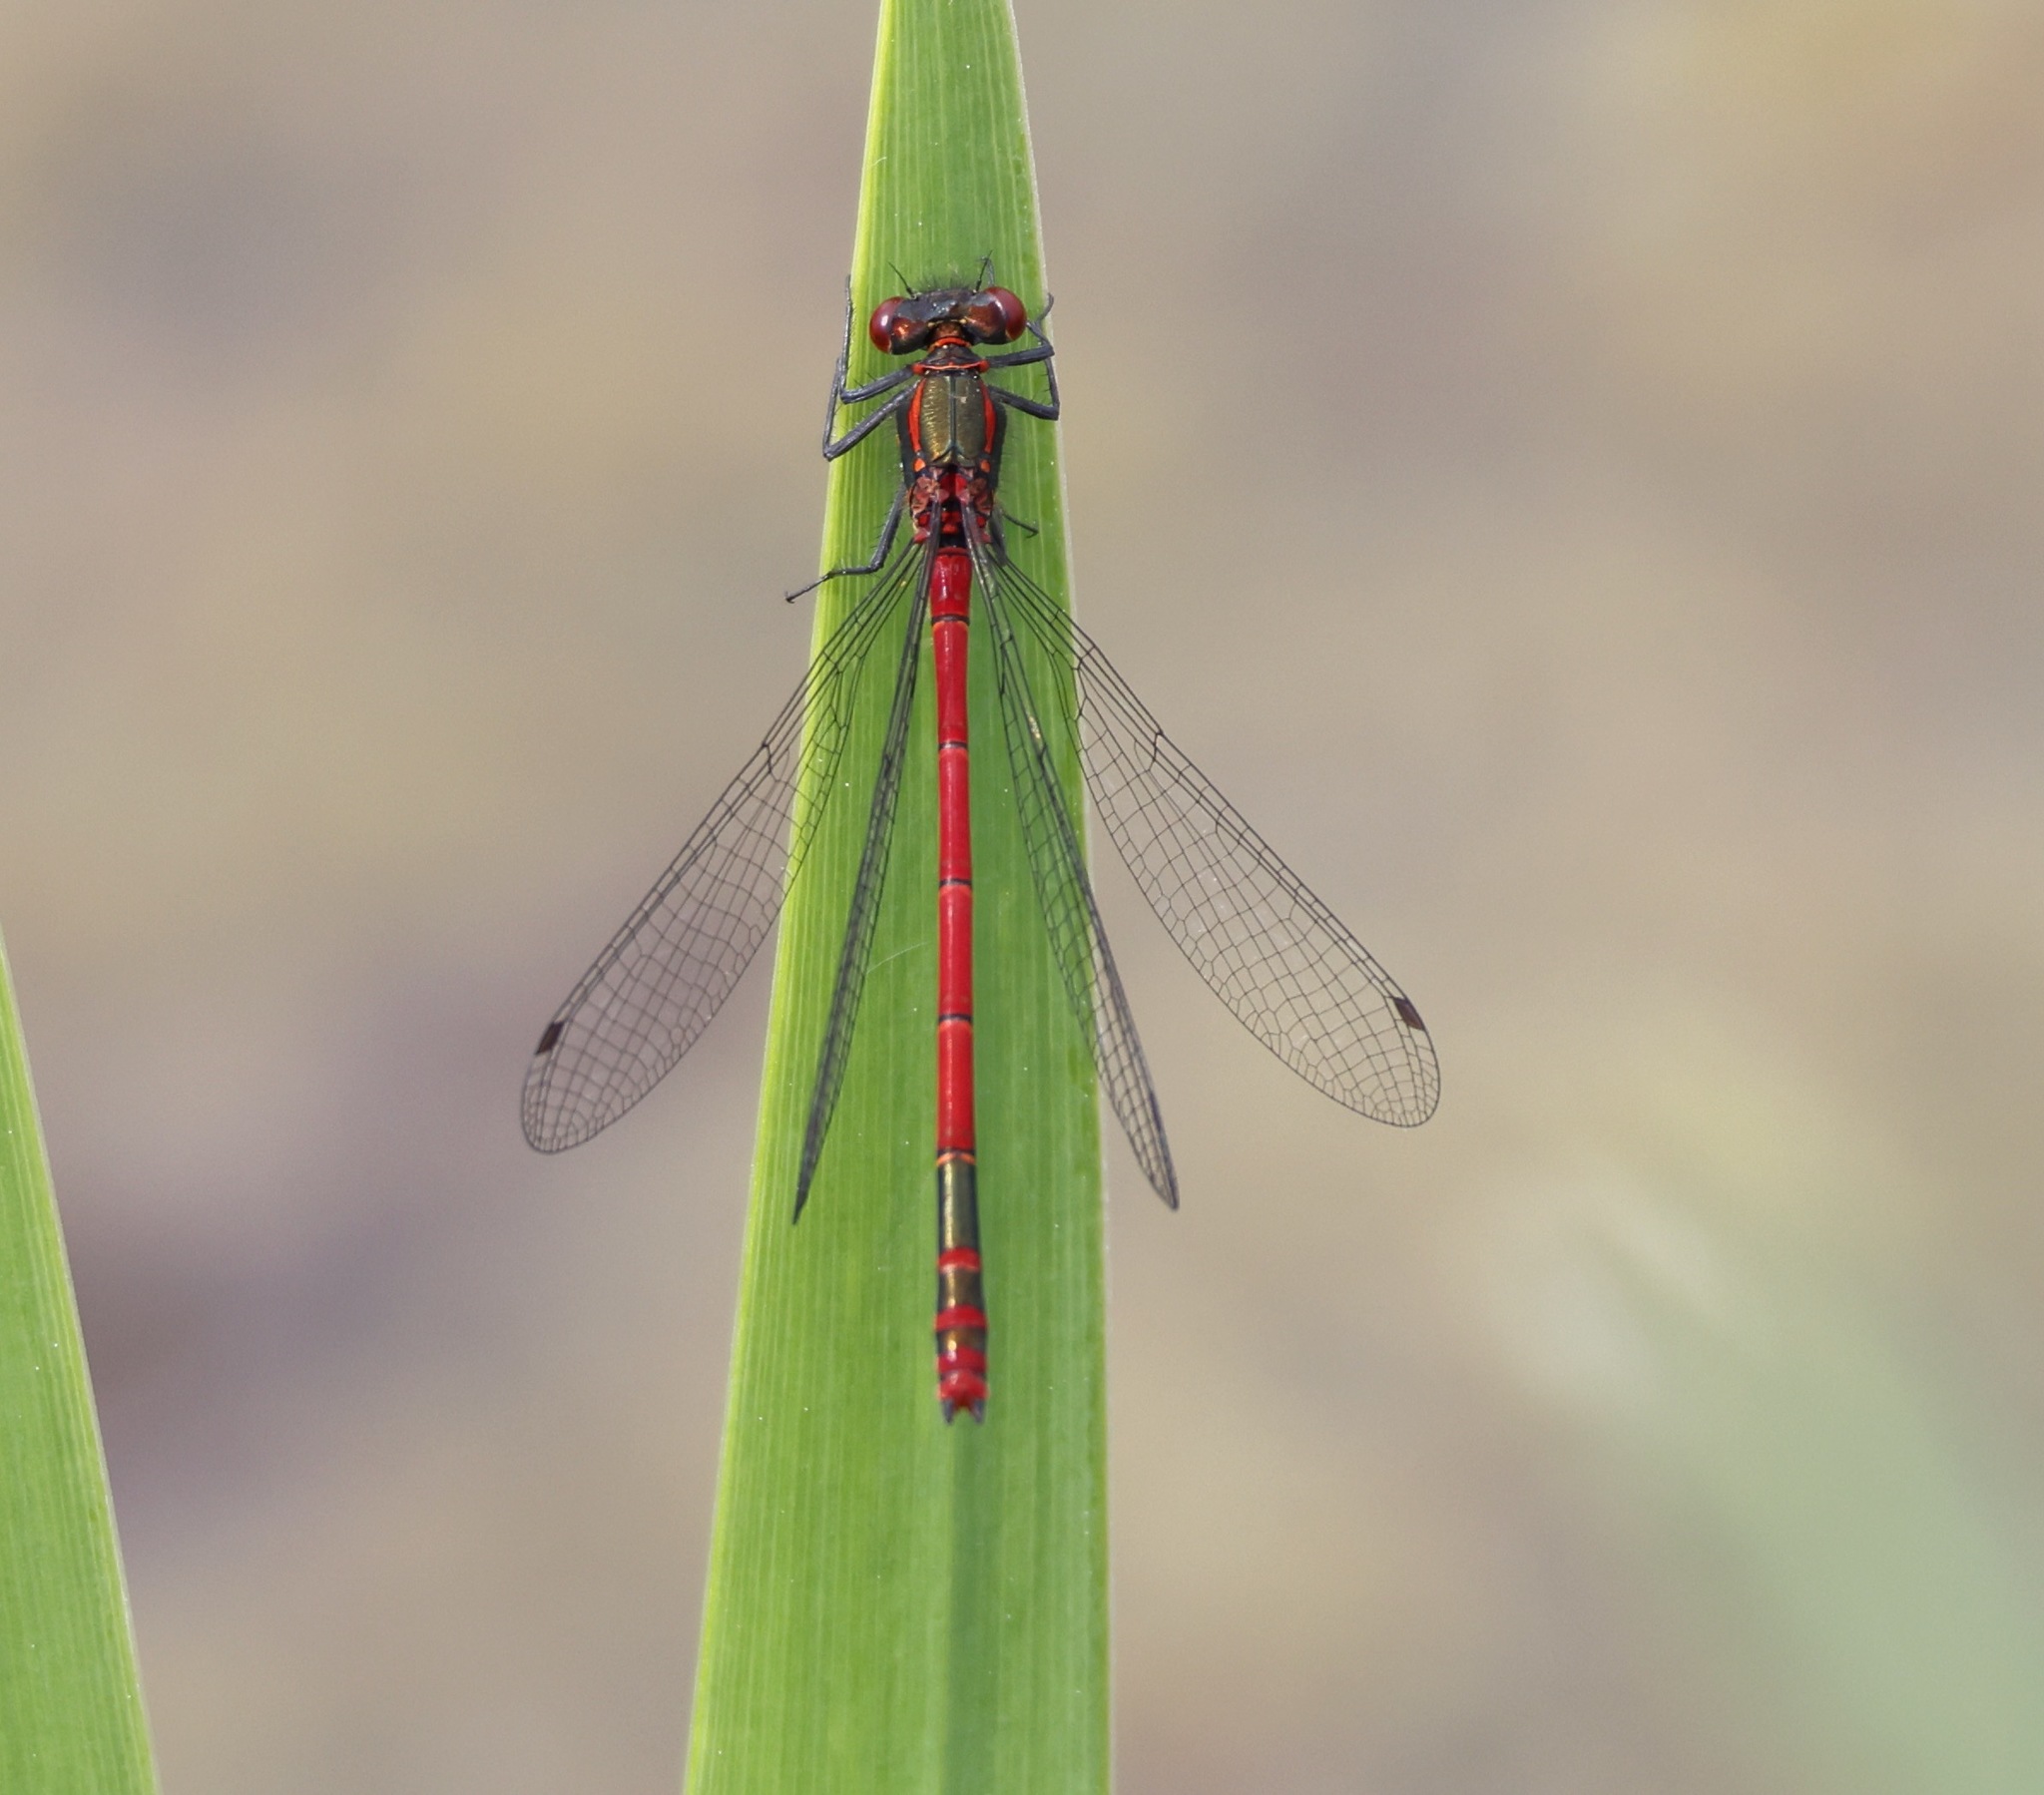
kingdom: Animalia
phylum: Arthropoda
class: Insecta
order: Odonata
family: Coenagrionidae
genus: Pyrrhosoma
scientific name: Pyrrhosoma nymphula
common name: Large red damsel
